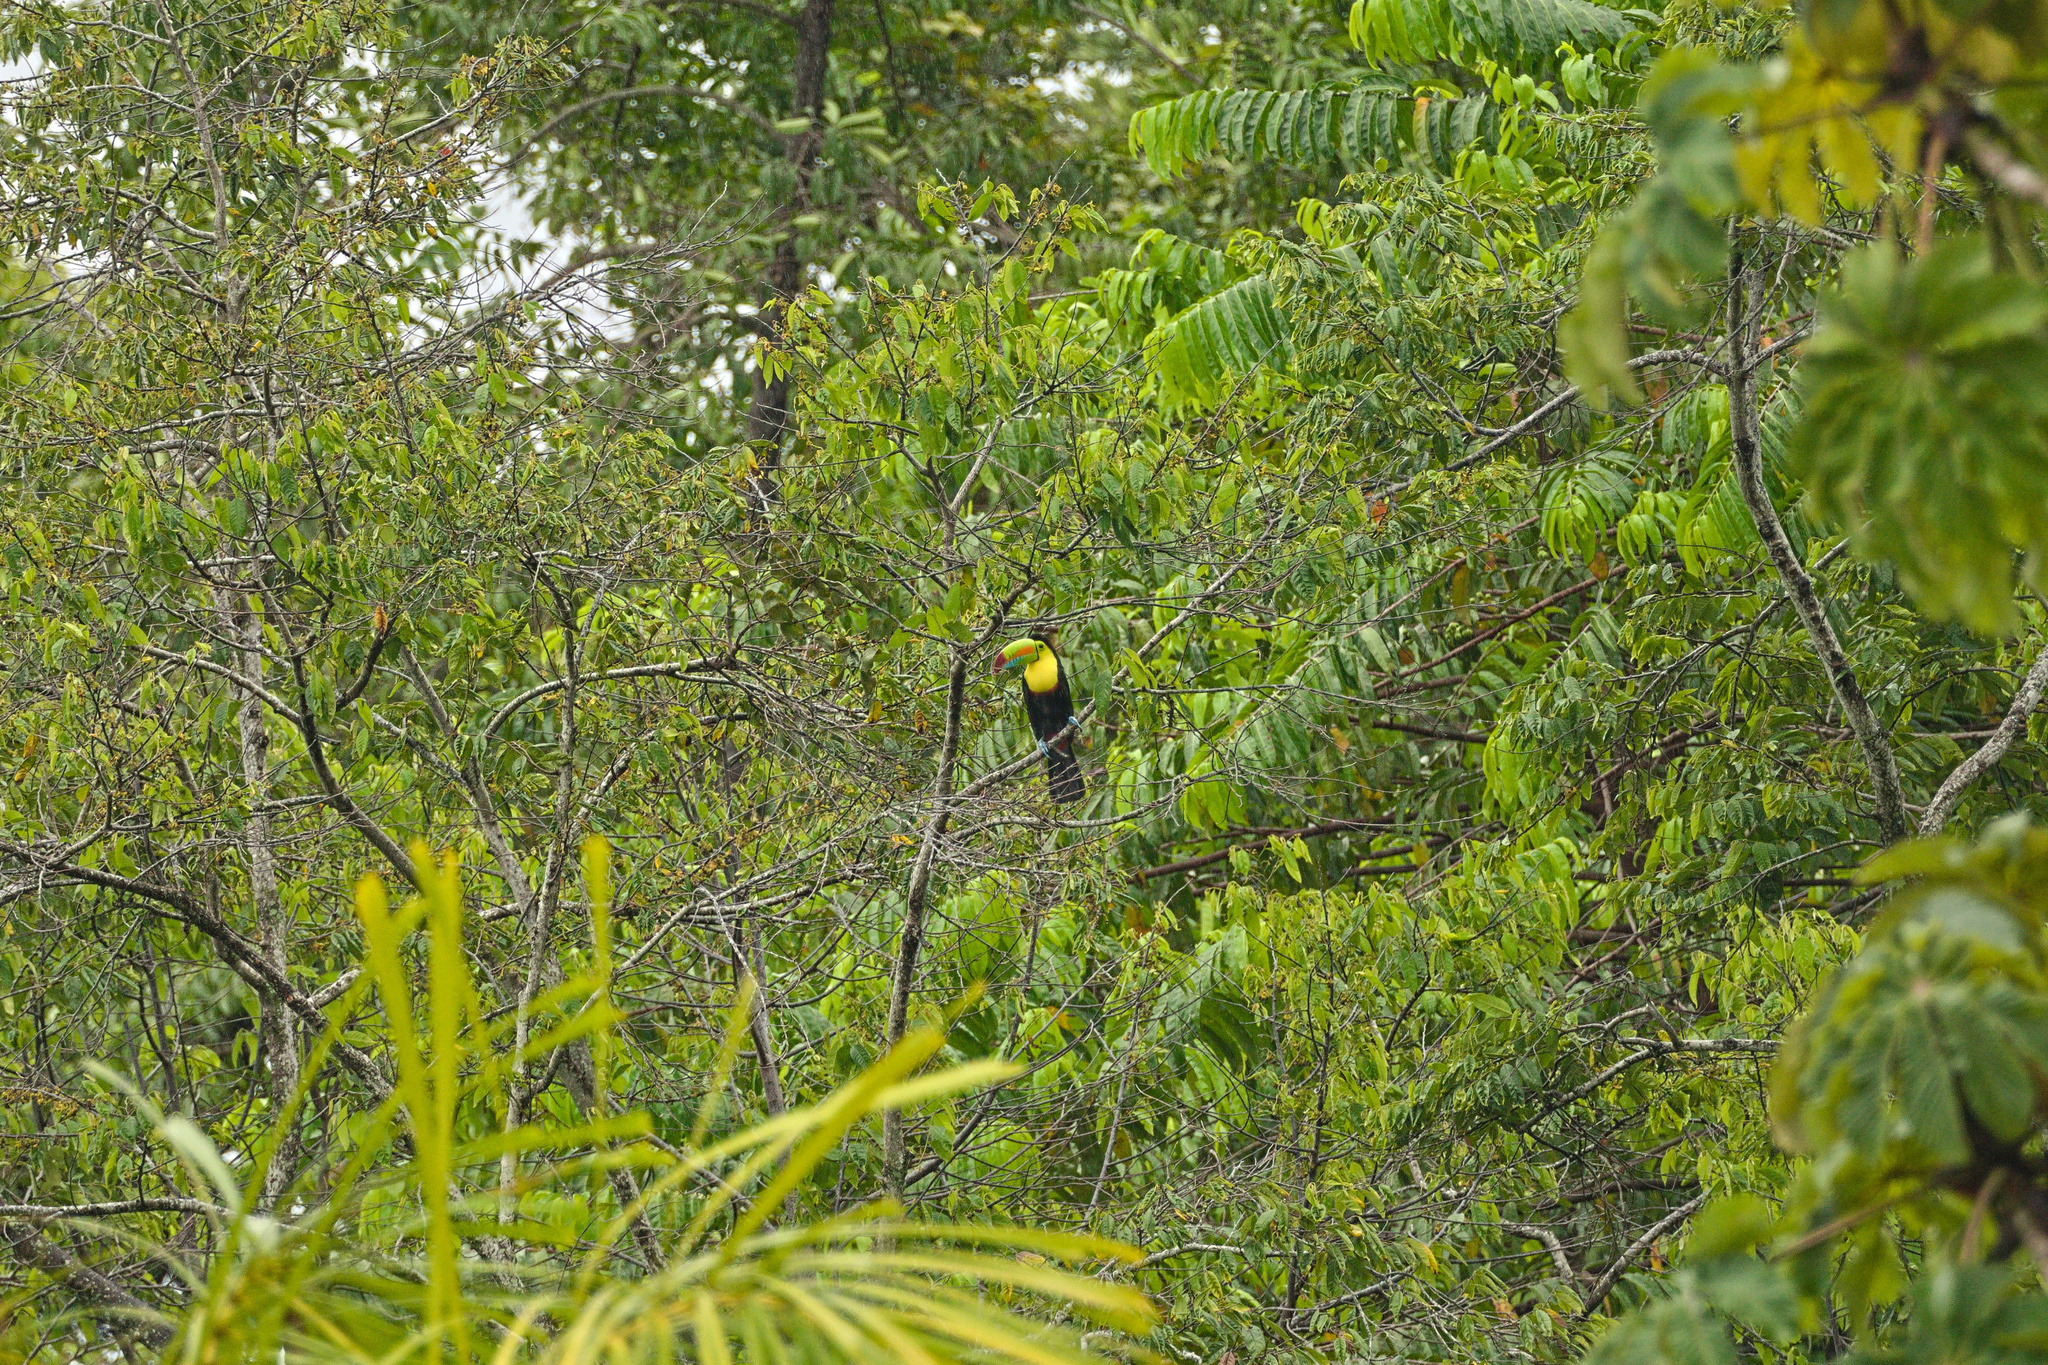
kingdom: Animalia
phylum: Chordata
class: Aves
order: Piciformes
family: Ramphastidae
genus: Ramphastos
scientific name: Ramphastos sulfuratus
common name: Keel-billed toucan
